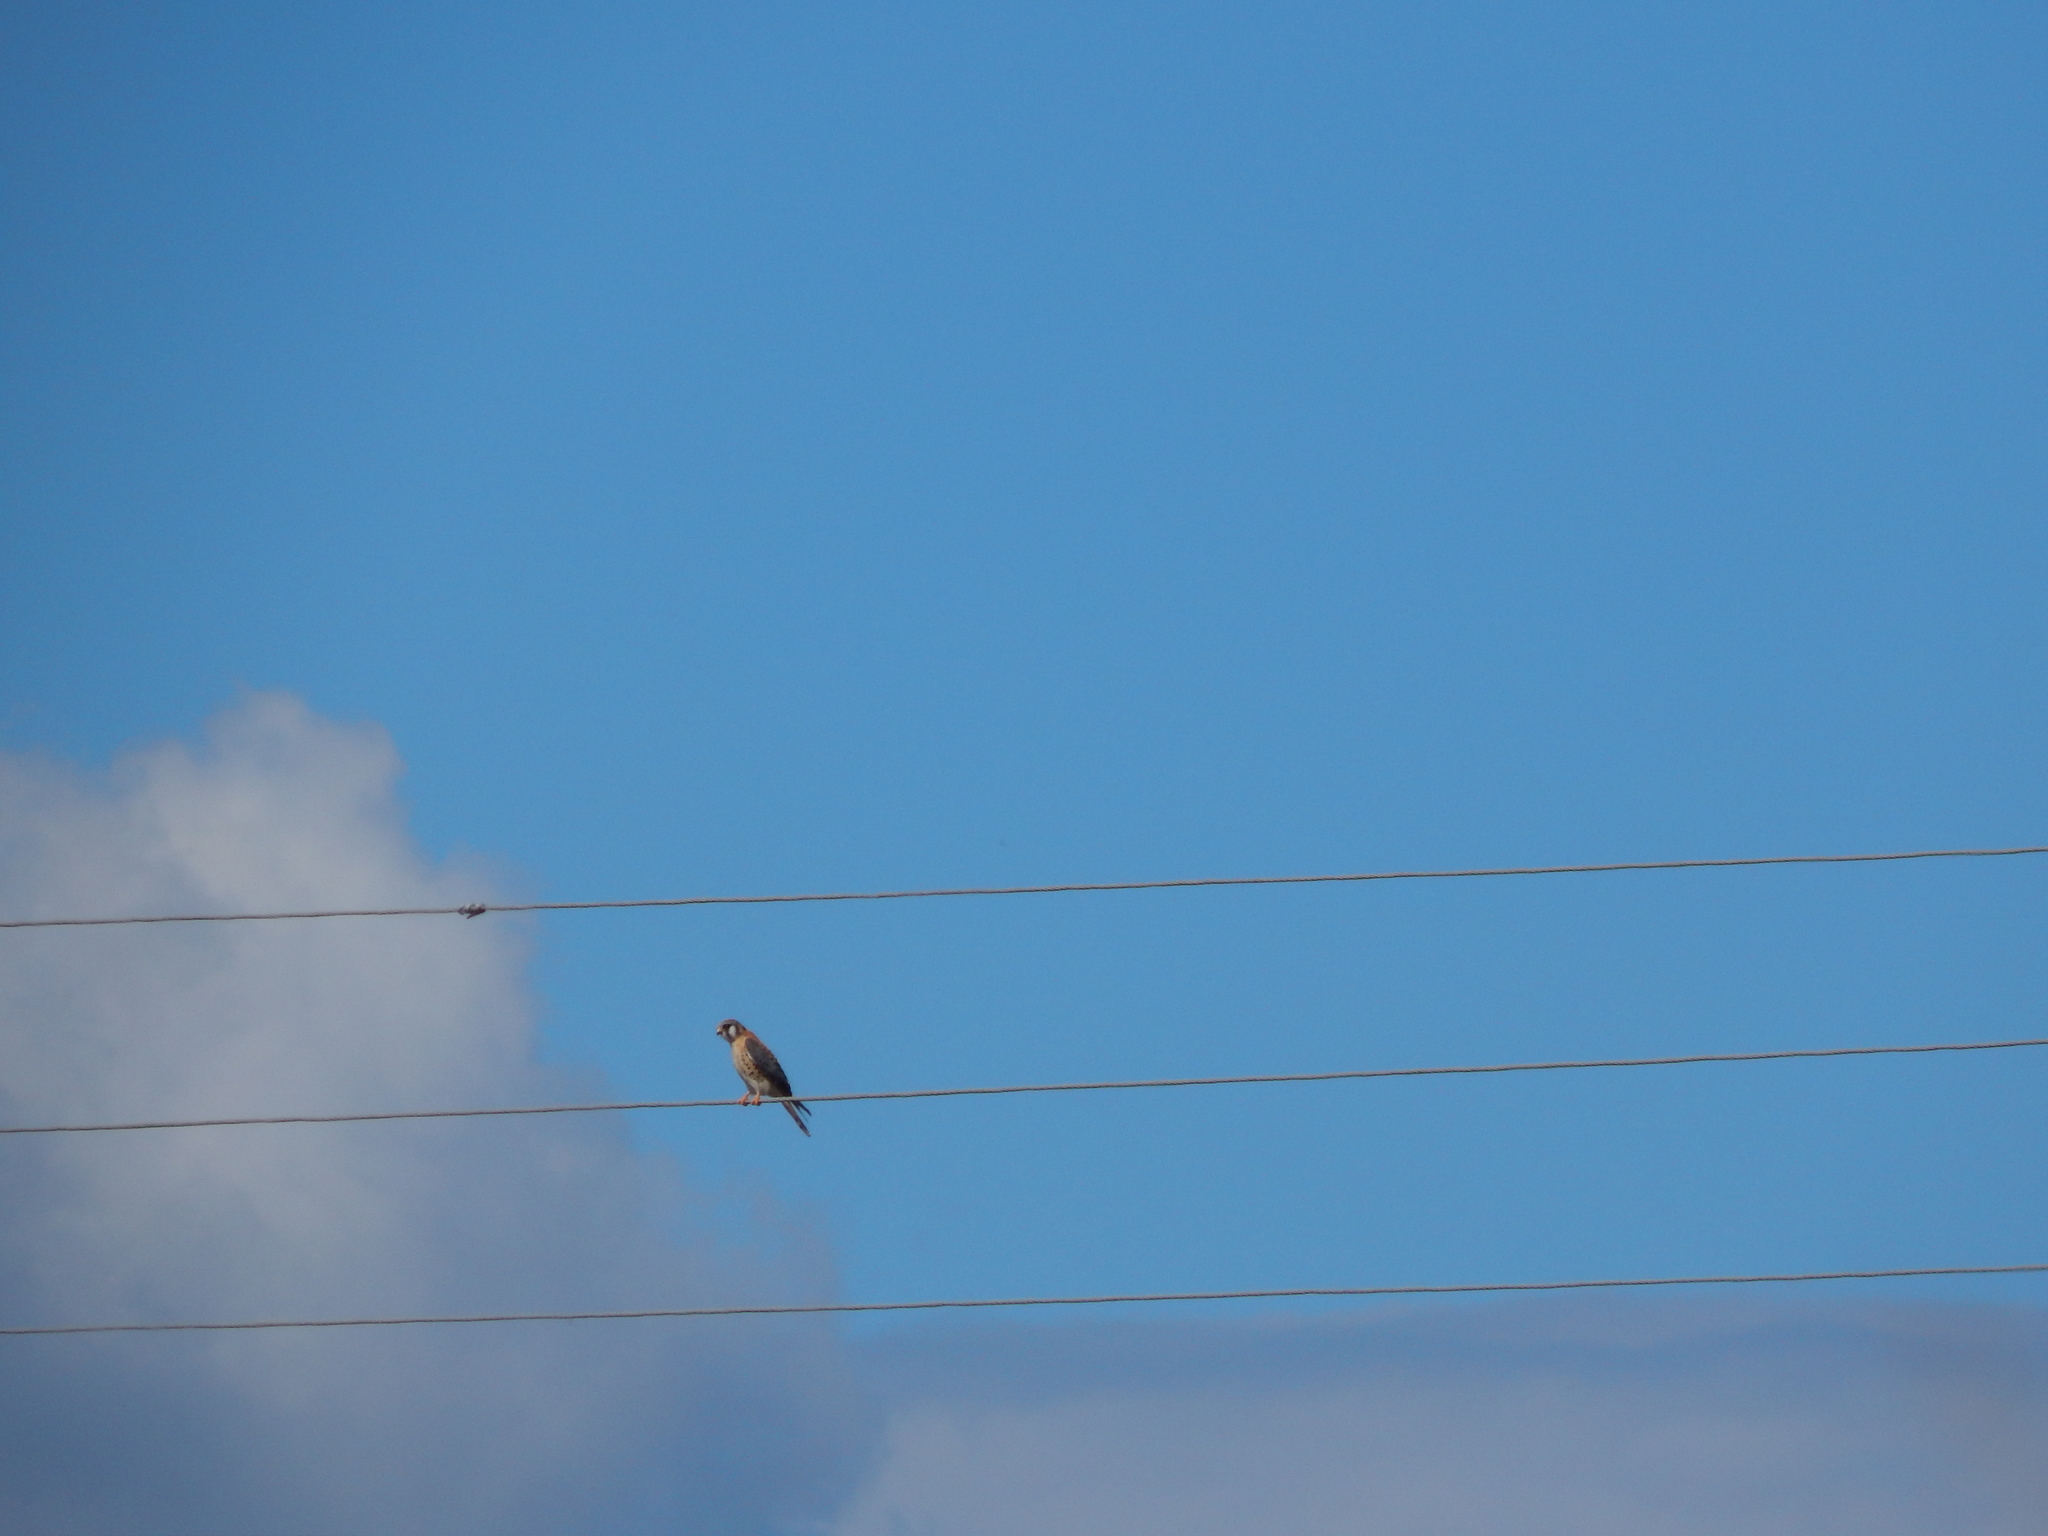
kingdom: Animalia
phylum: Chordata
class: Aves
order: Falconiformes
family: Falconidae
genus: Falco
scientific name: Falco sparverius
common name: American kestrel
